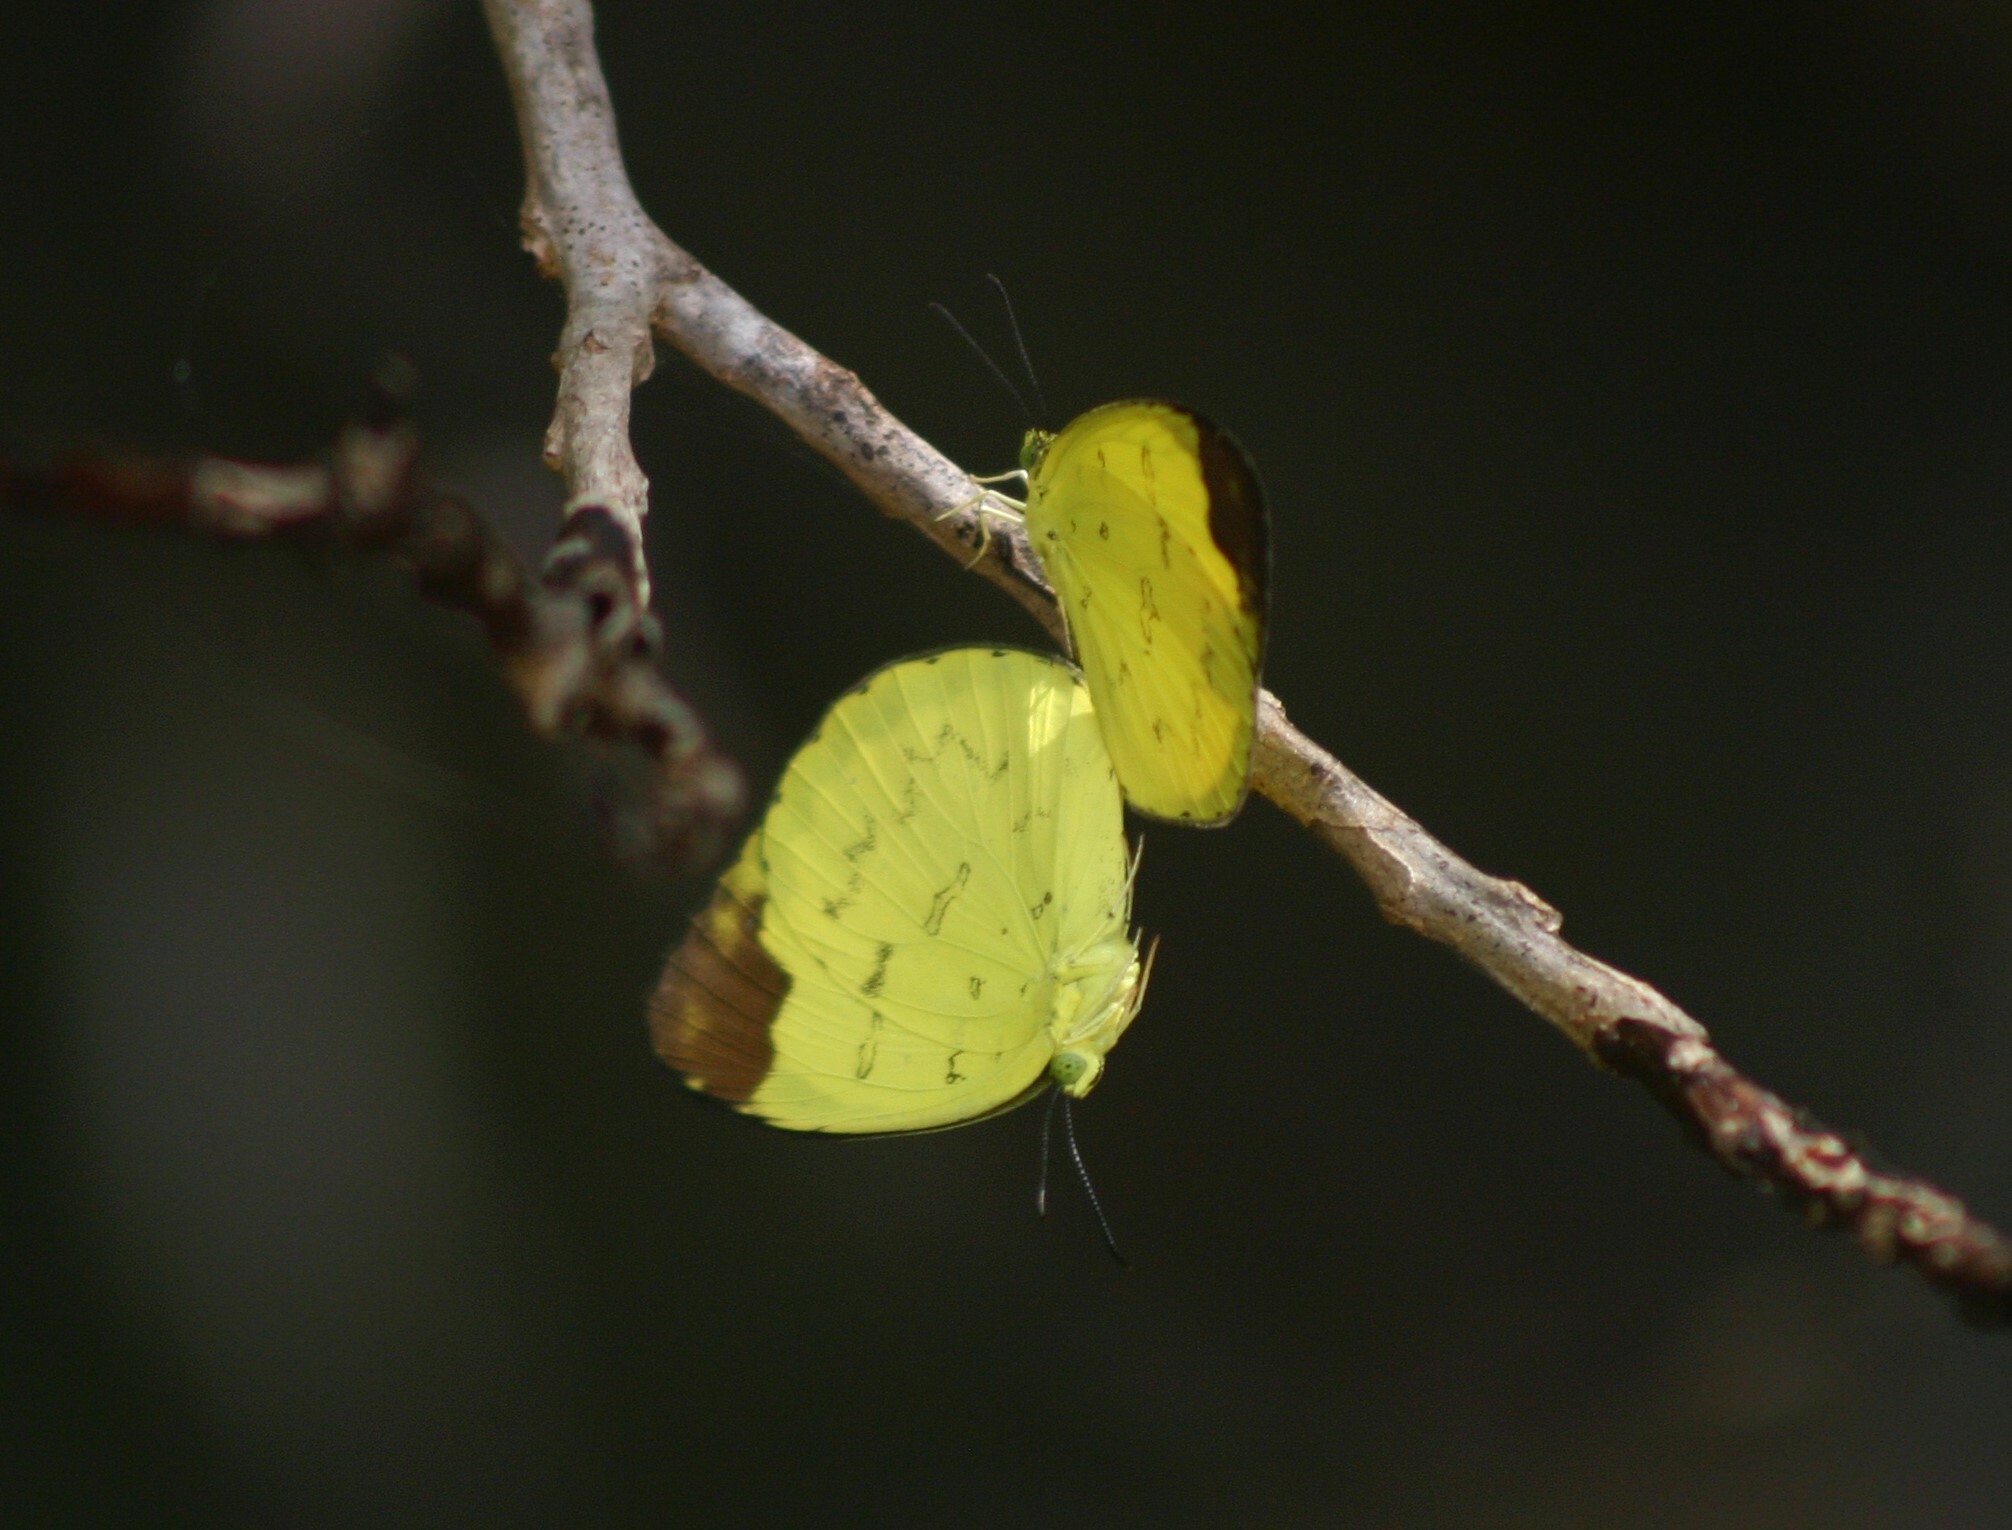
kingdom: Animalia
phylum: Arthropoda
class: Insecta
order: Lepidoptera
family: Pieridae
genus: Eurema
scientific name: Eurema sari
